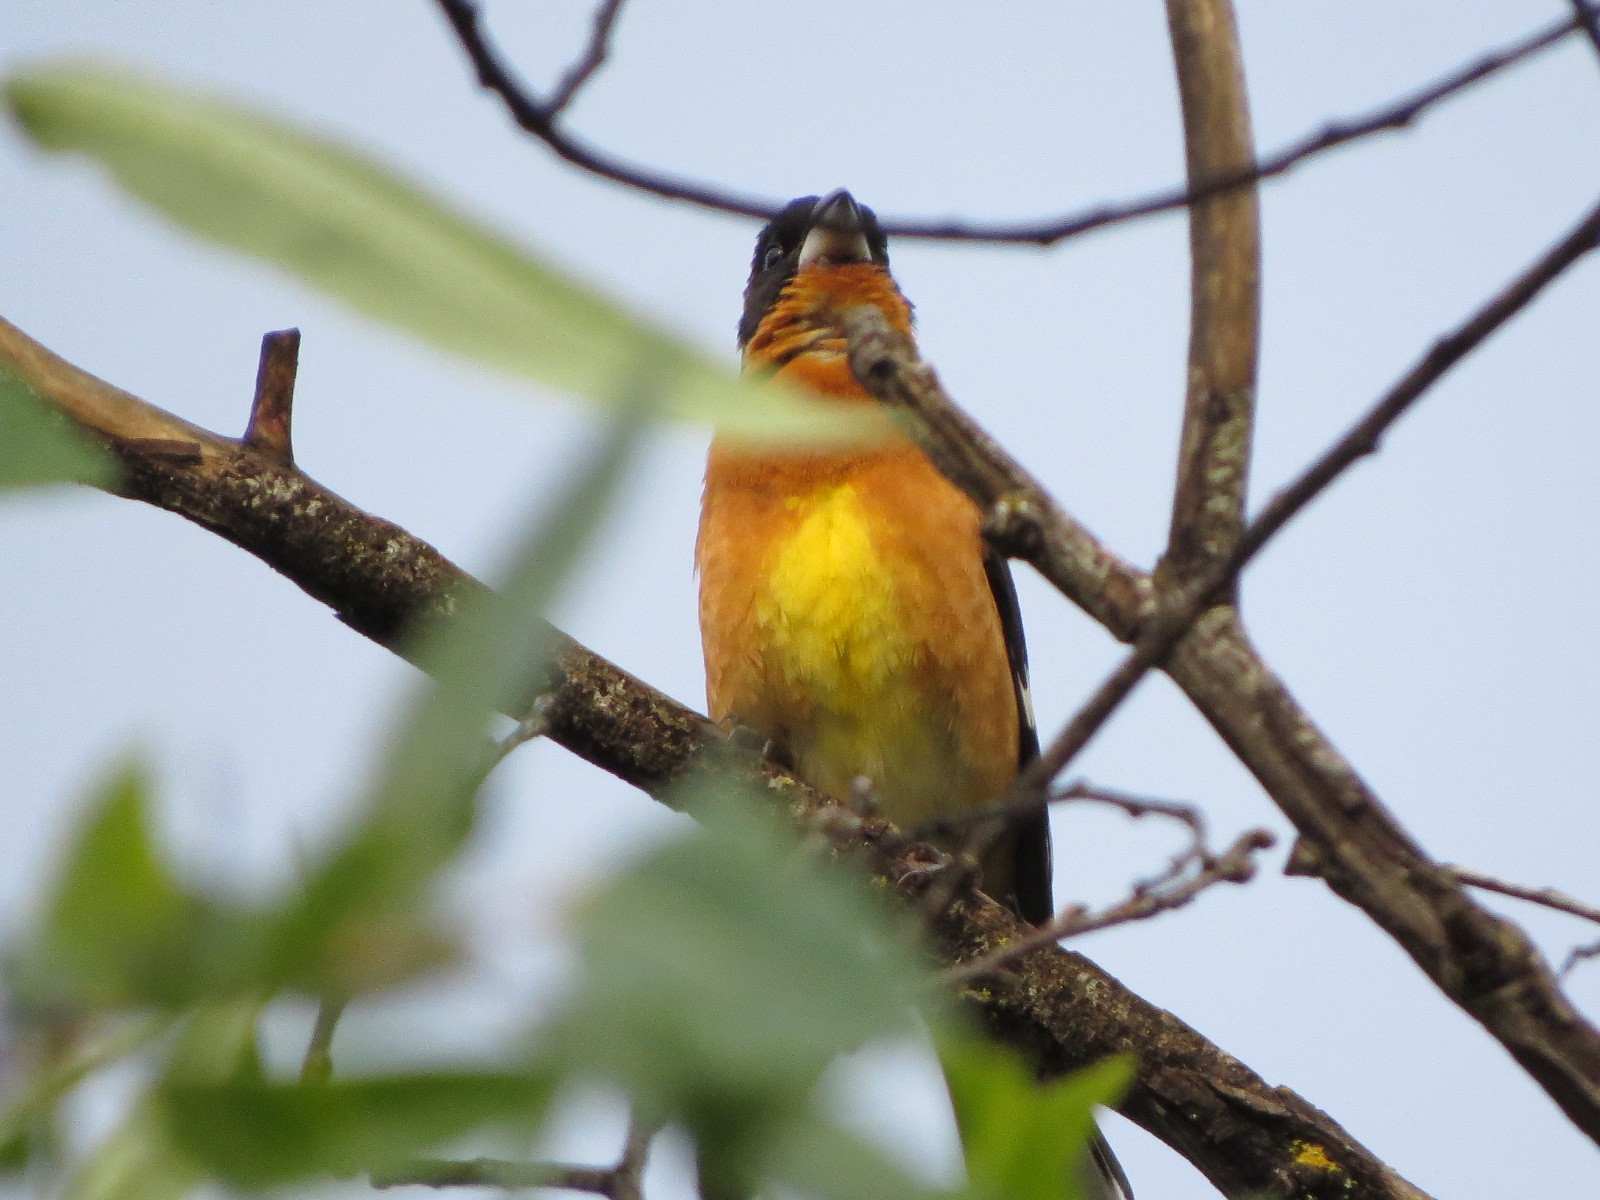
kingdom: Animalia
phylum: Chordata
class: Aves
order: Passeriformes
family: Cardinalidae
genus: Pheucticus
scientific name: Pheucticus melanocephalus
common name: Black-headed grosbeak
